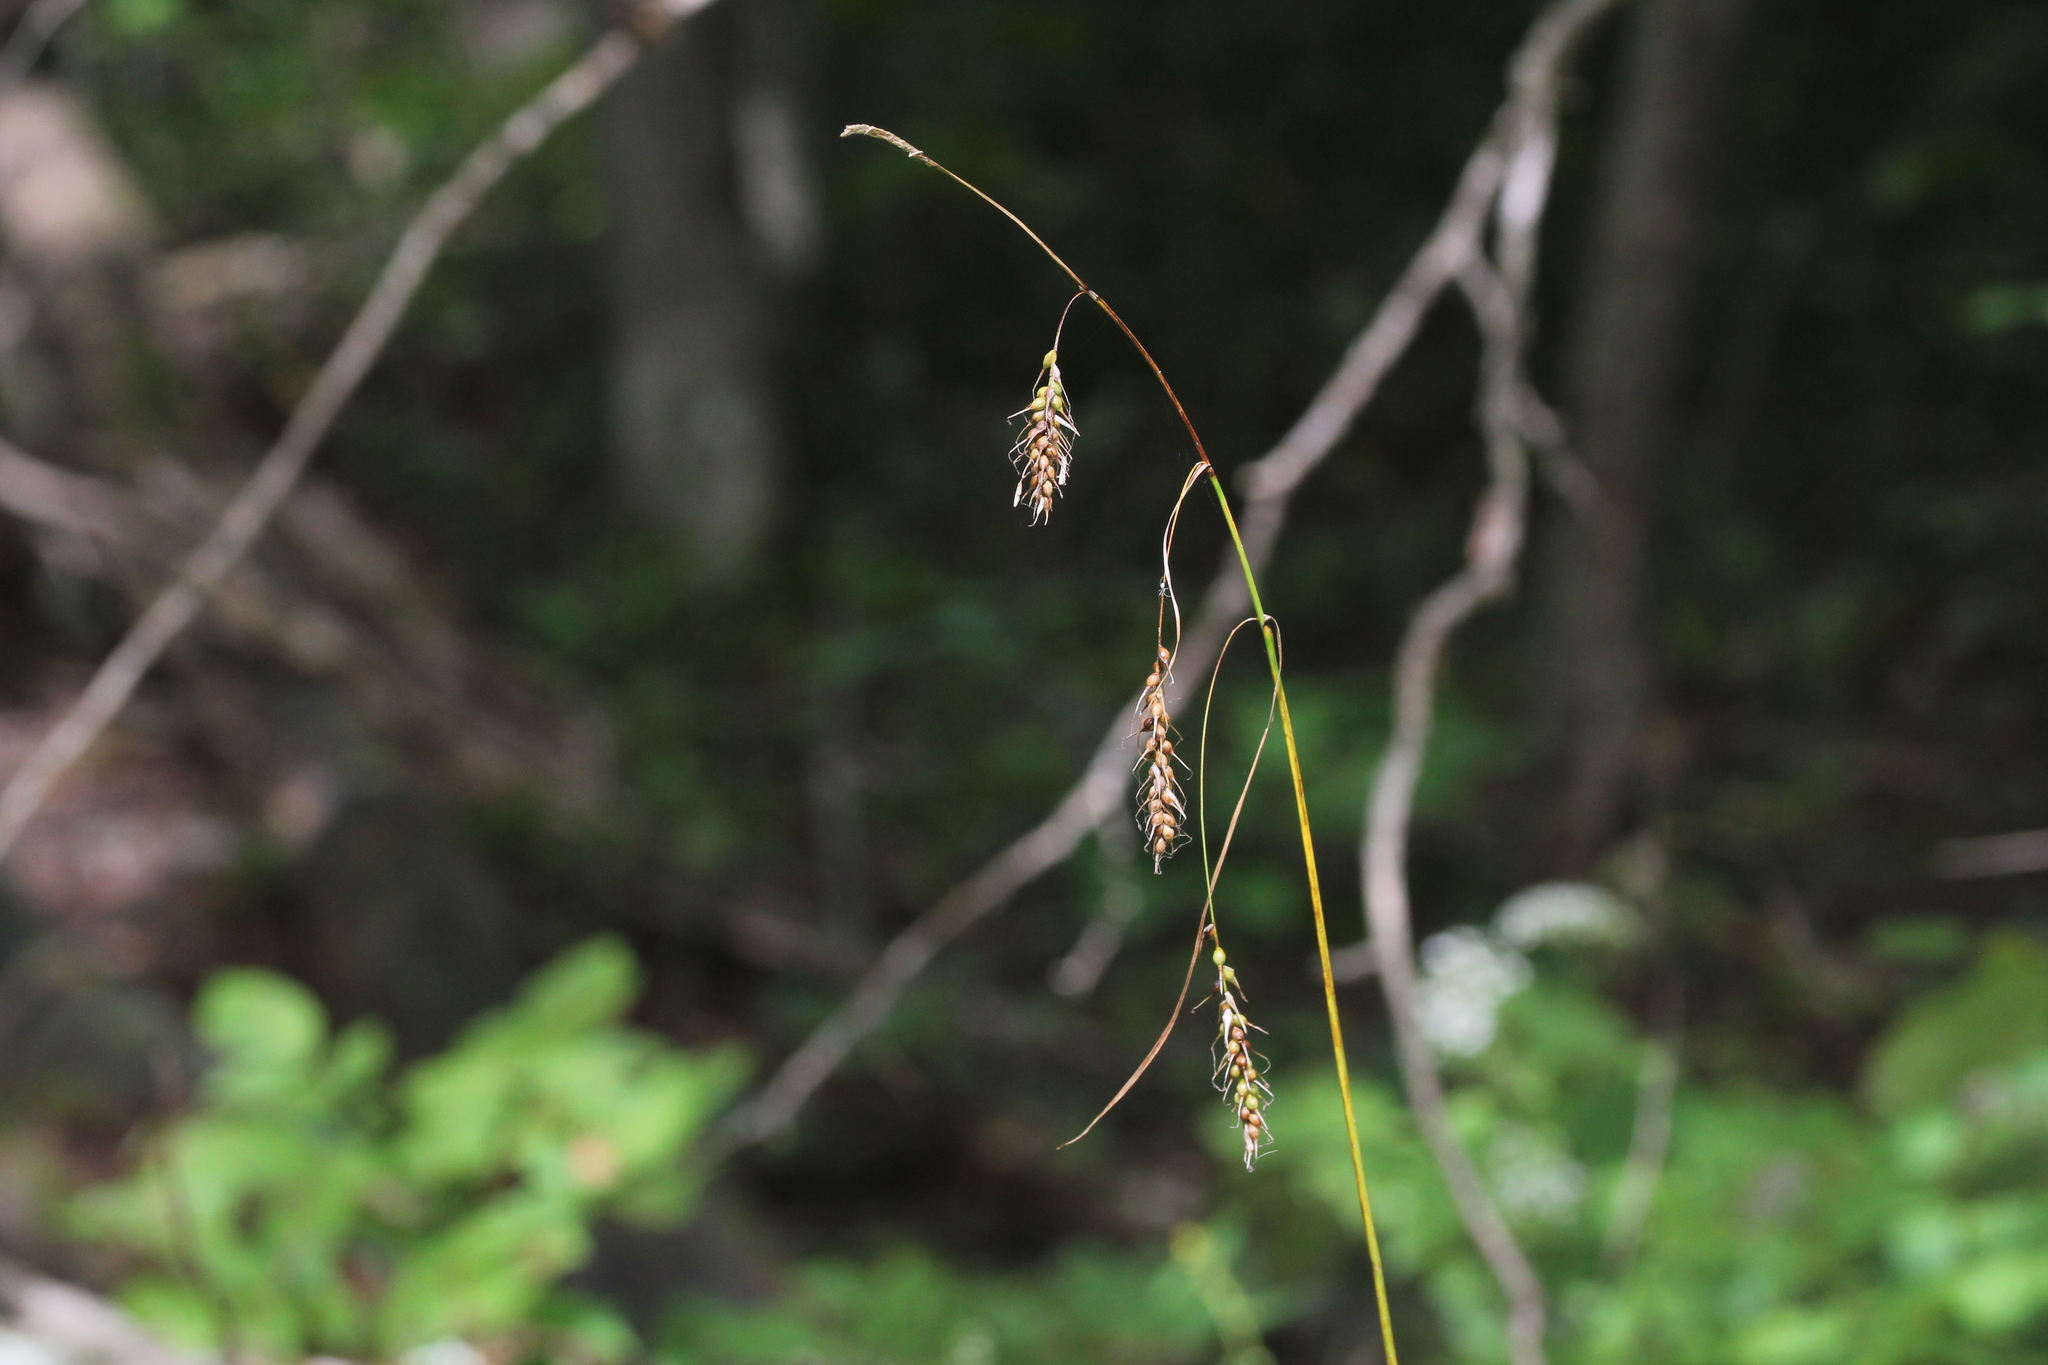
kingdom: Plantae
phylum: Tracheophyta
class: Liliopsida
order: Poales
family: Cyperaceae
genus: Carex
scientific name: Carex sprengelii
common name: Long-beaked sedge
